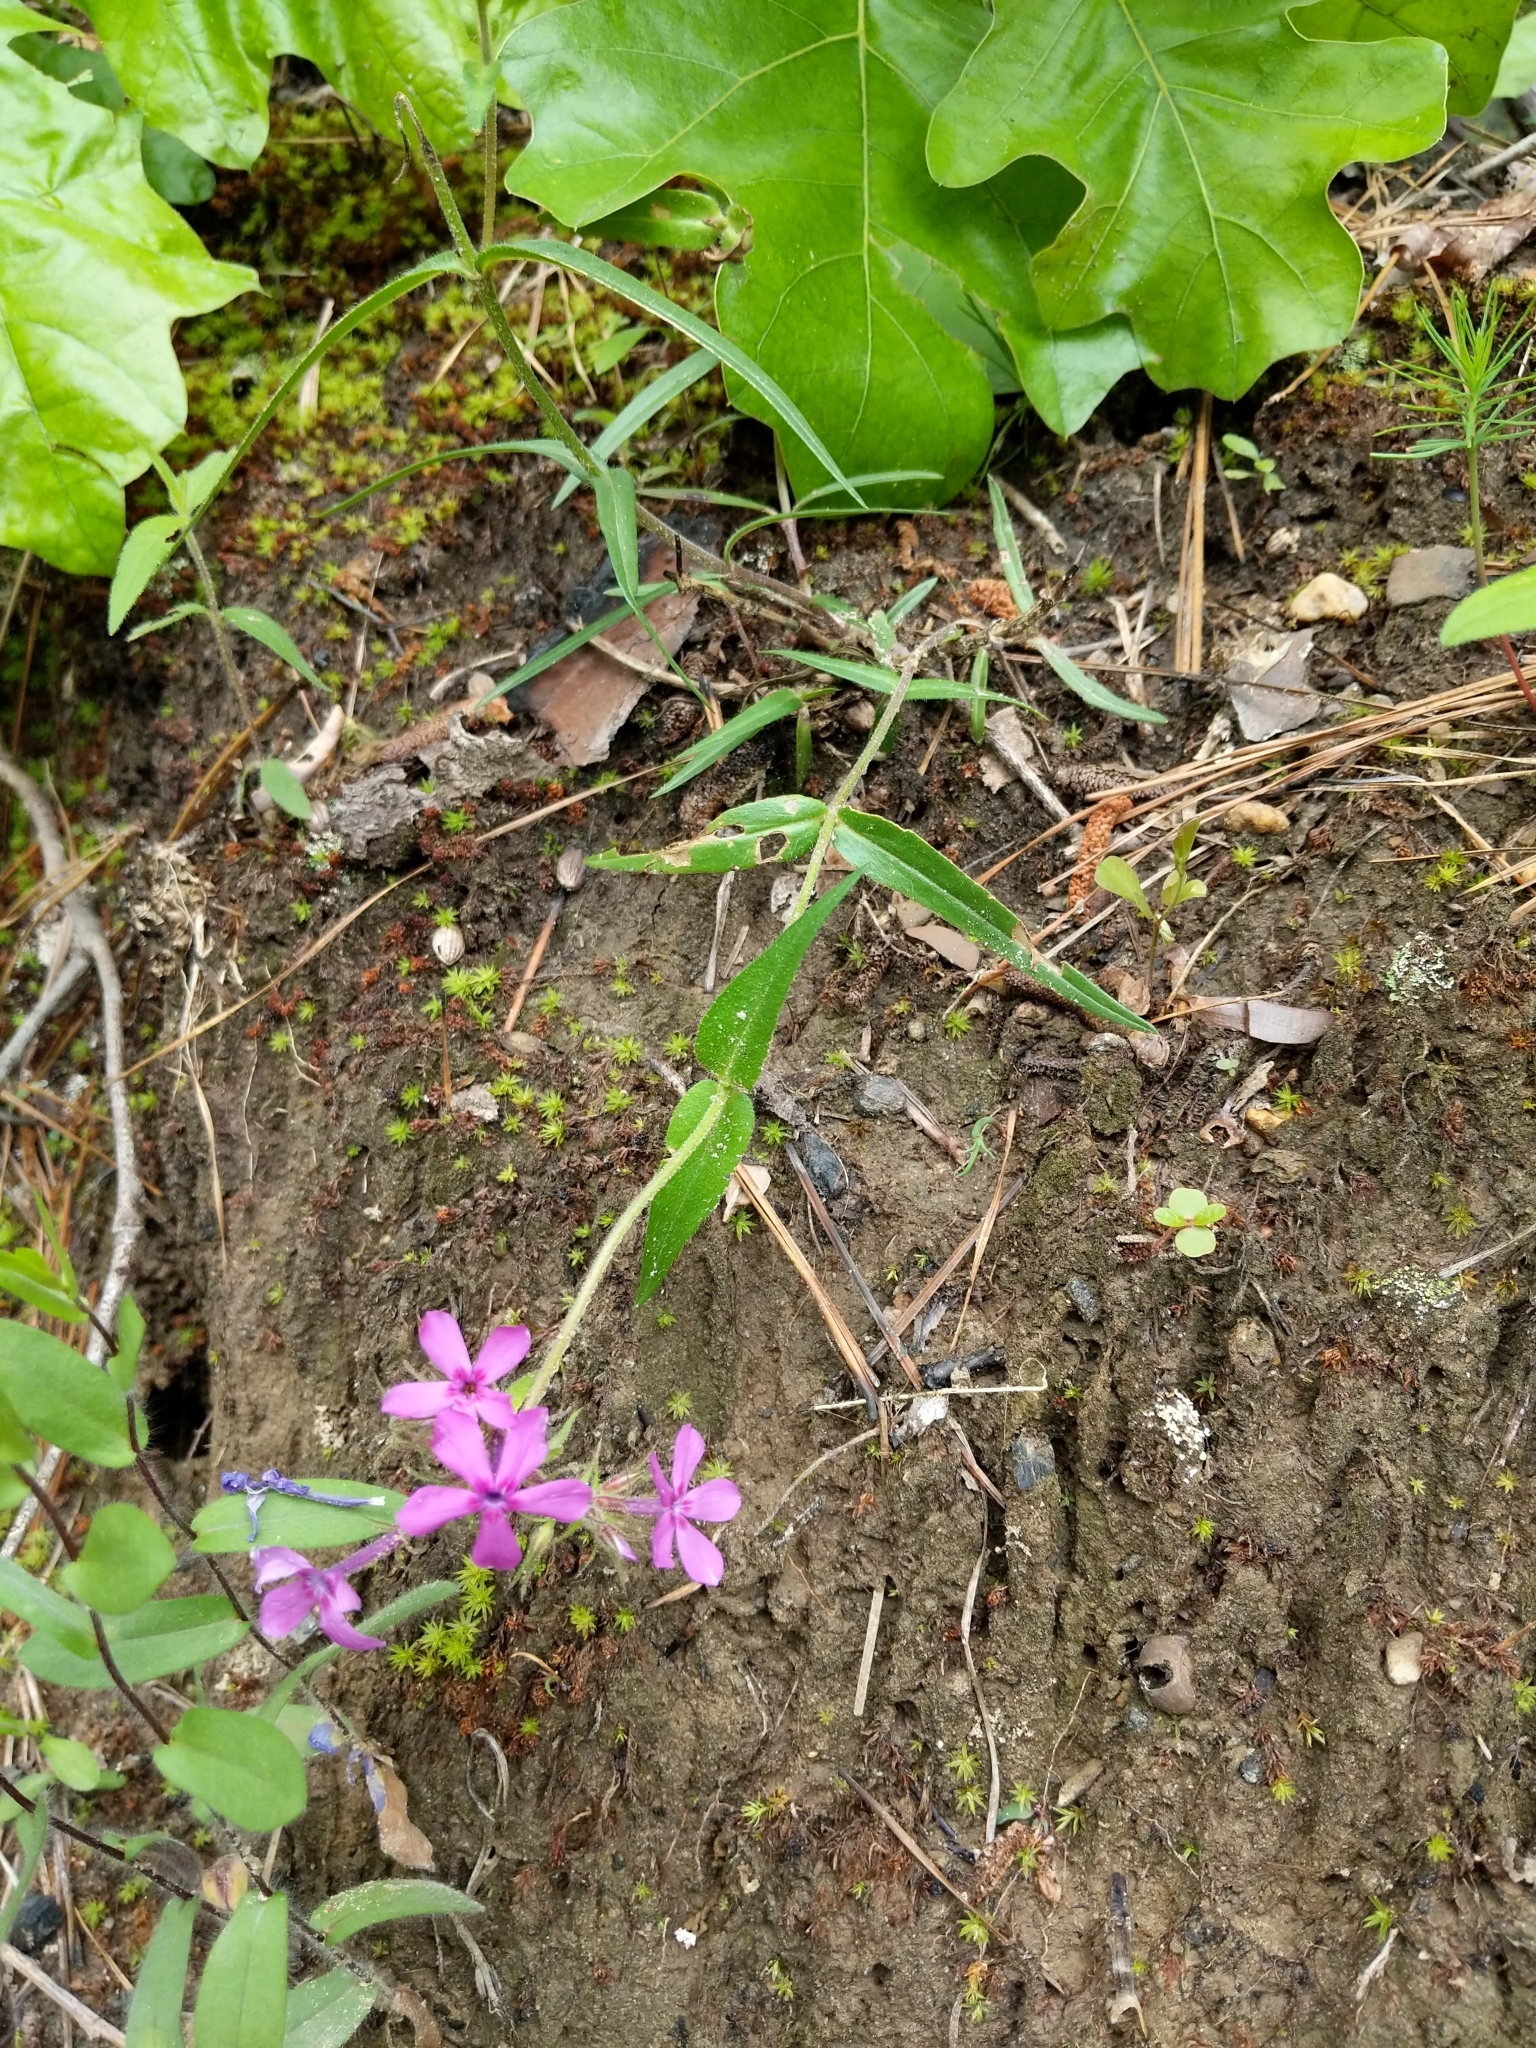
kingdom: Plantae
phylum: Tracheophyta
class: Magnoliopsida
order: Ericales
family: Polemoniaceae
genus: Phlox
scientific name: Phlox pilosa
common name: Prairie phlox
